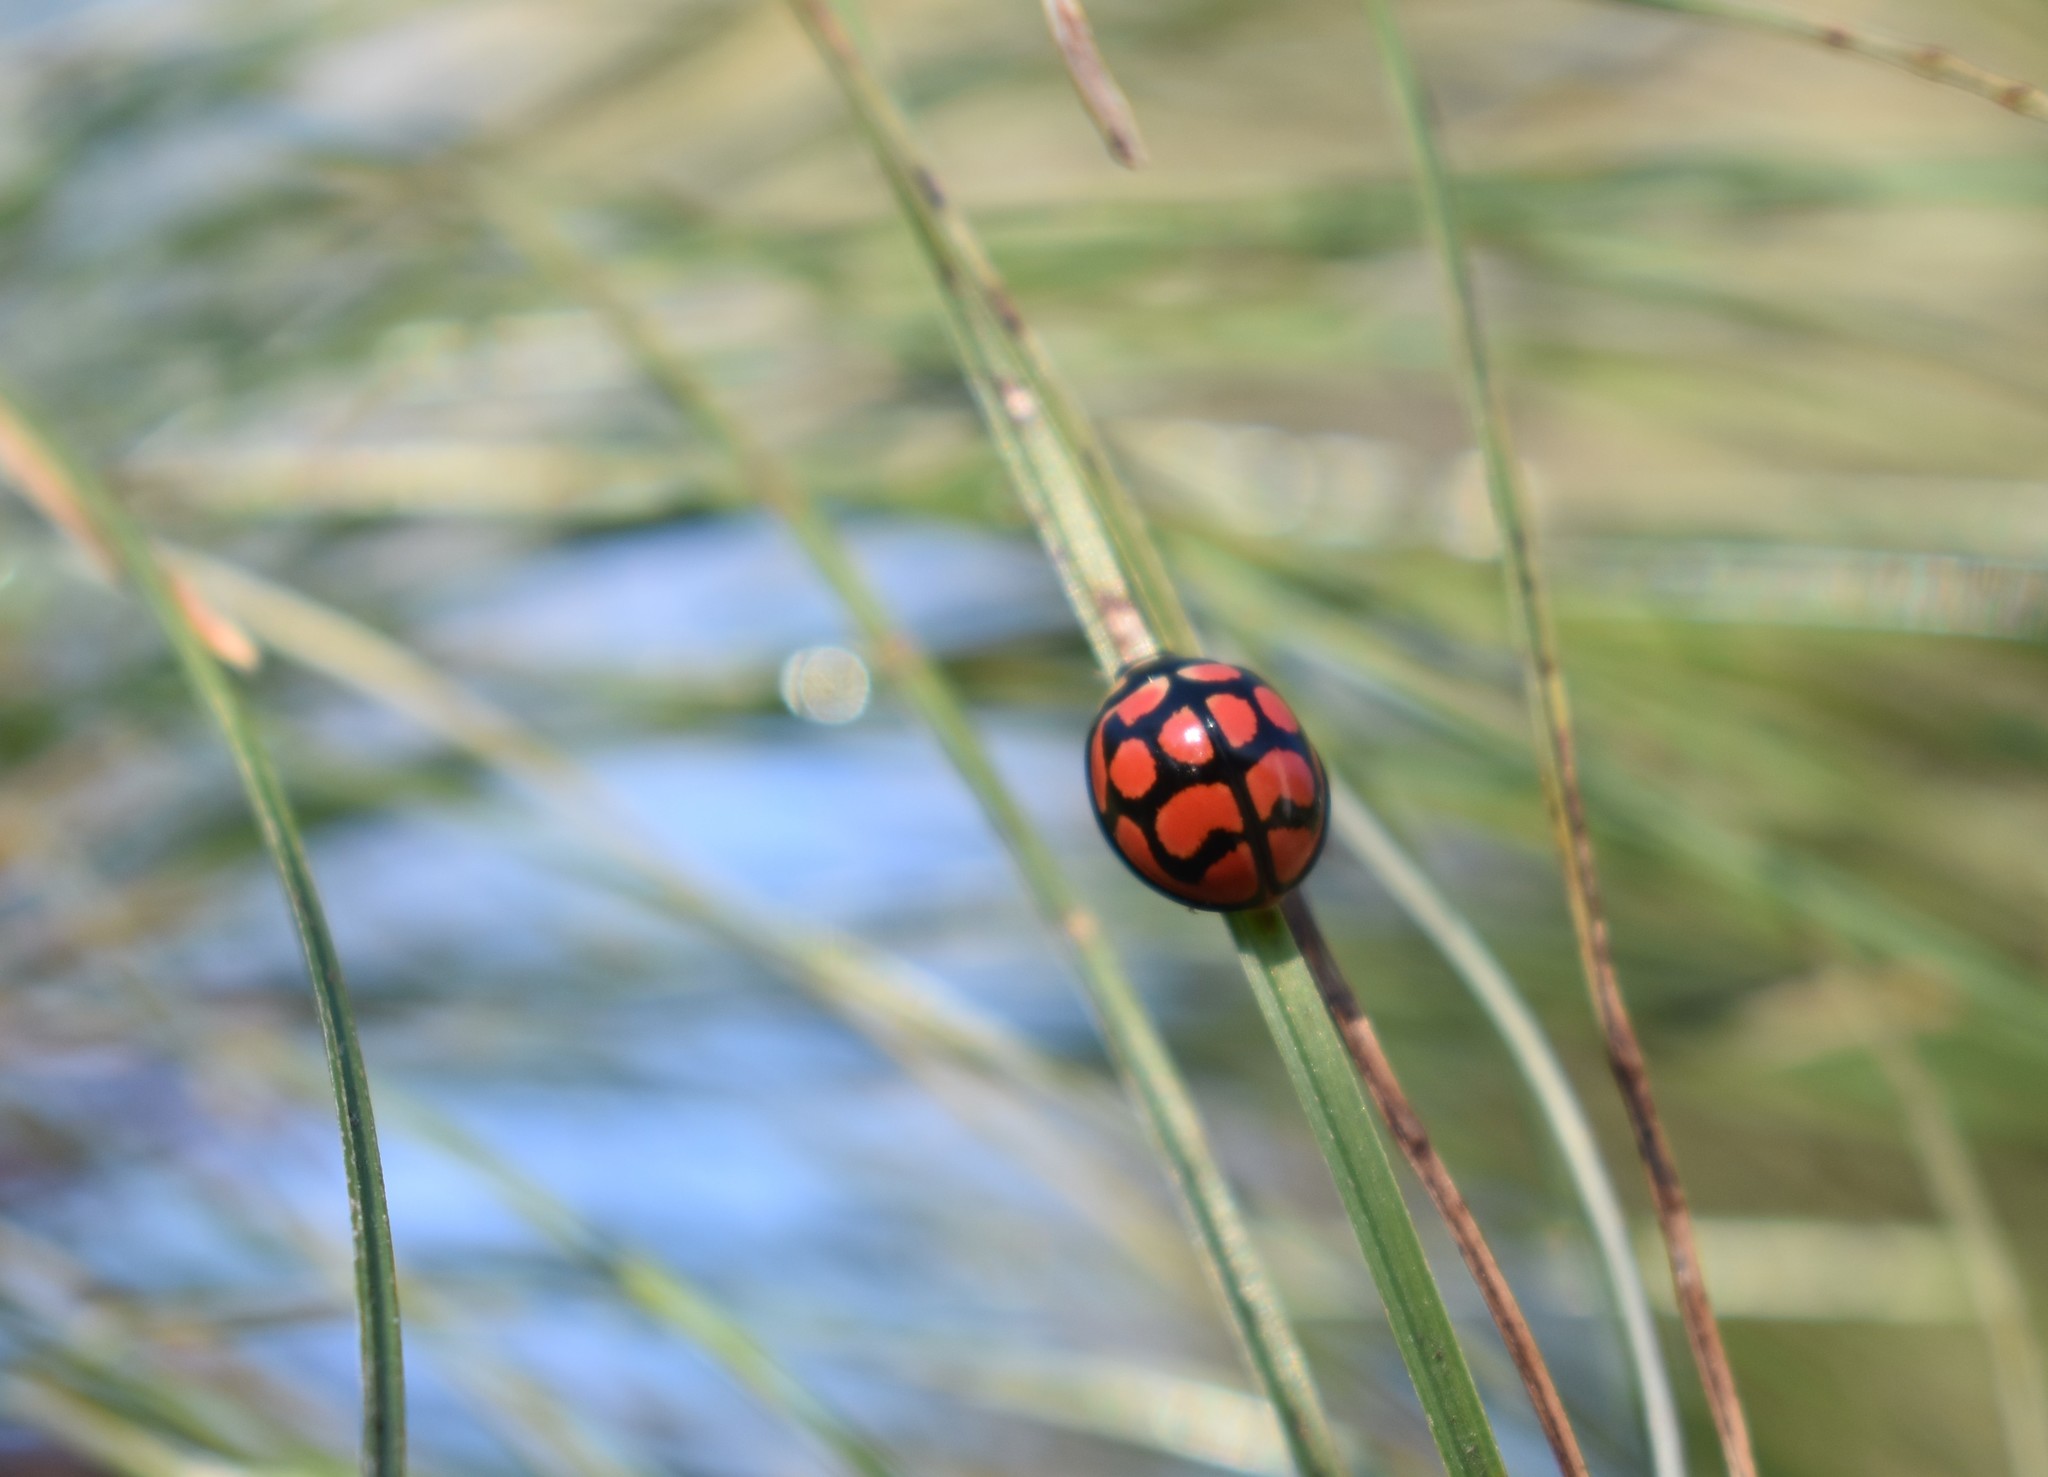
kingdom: Animalia
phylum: Arthropoda
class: Insecta
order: Coleoptera
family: Coccinellidae
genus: Cheilomenes
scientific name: Cheilomenes lunata
